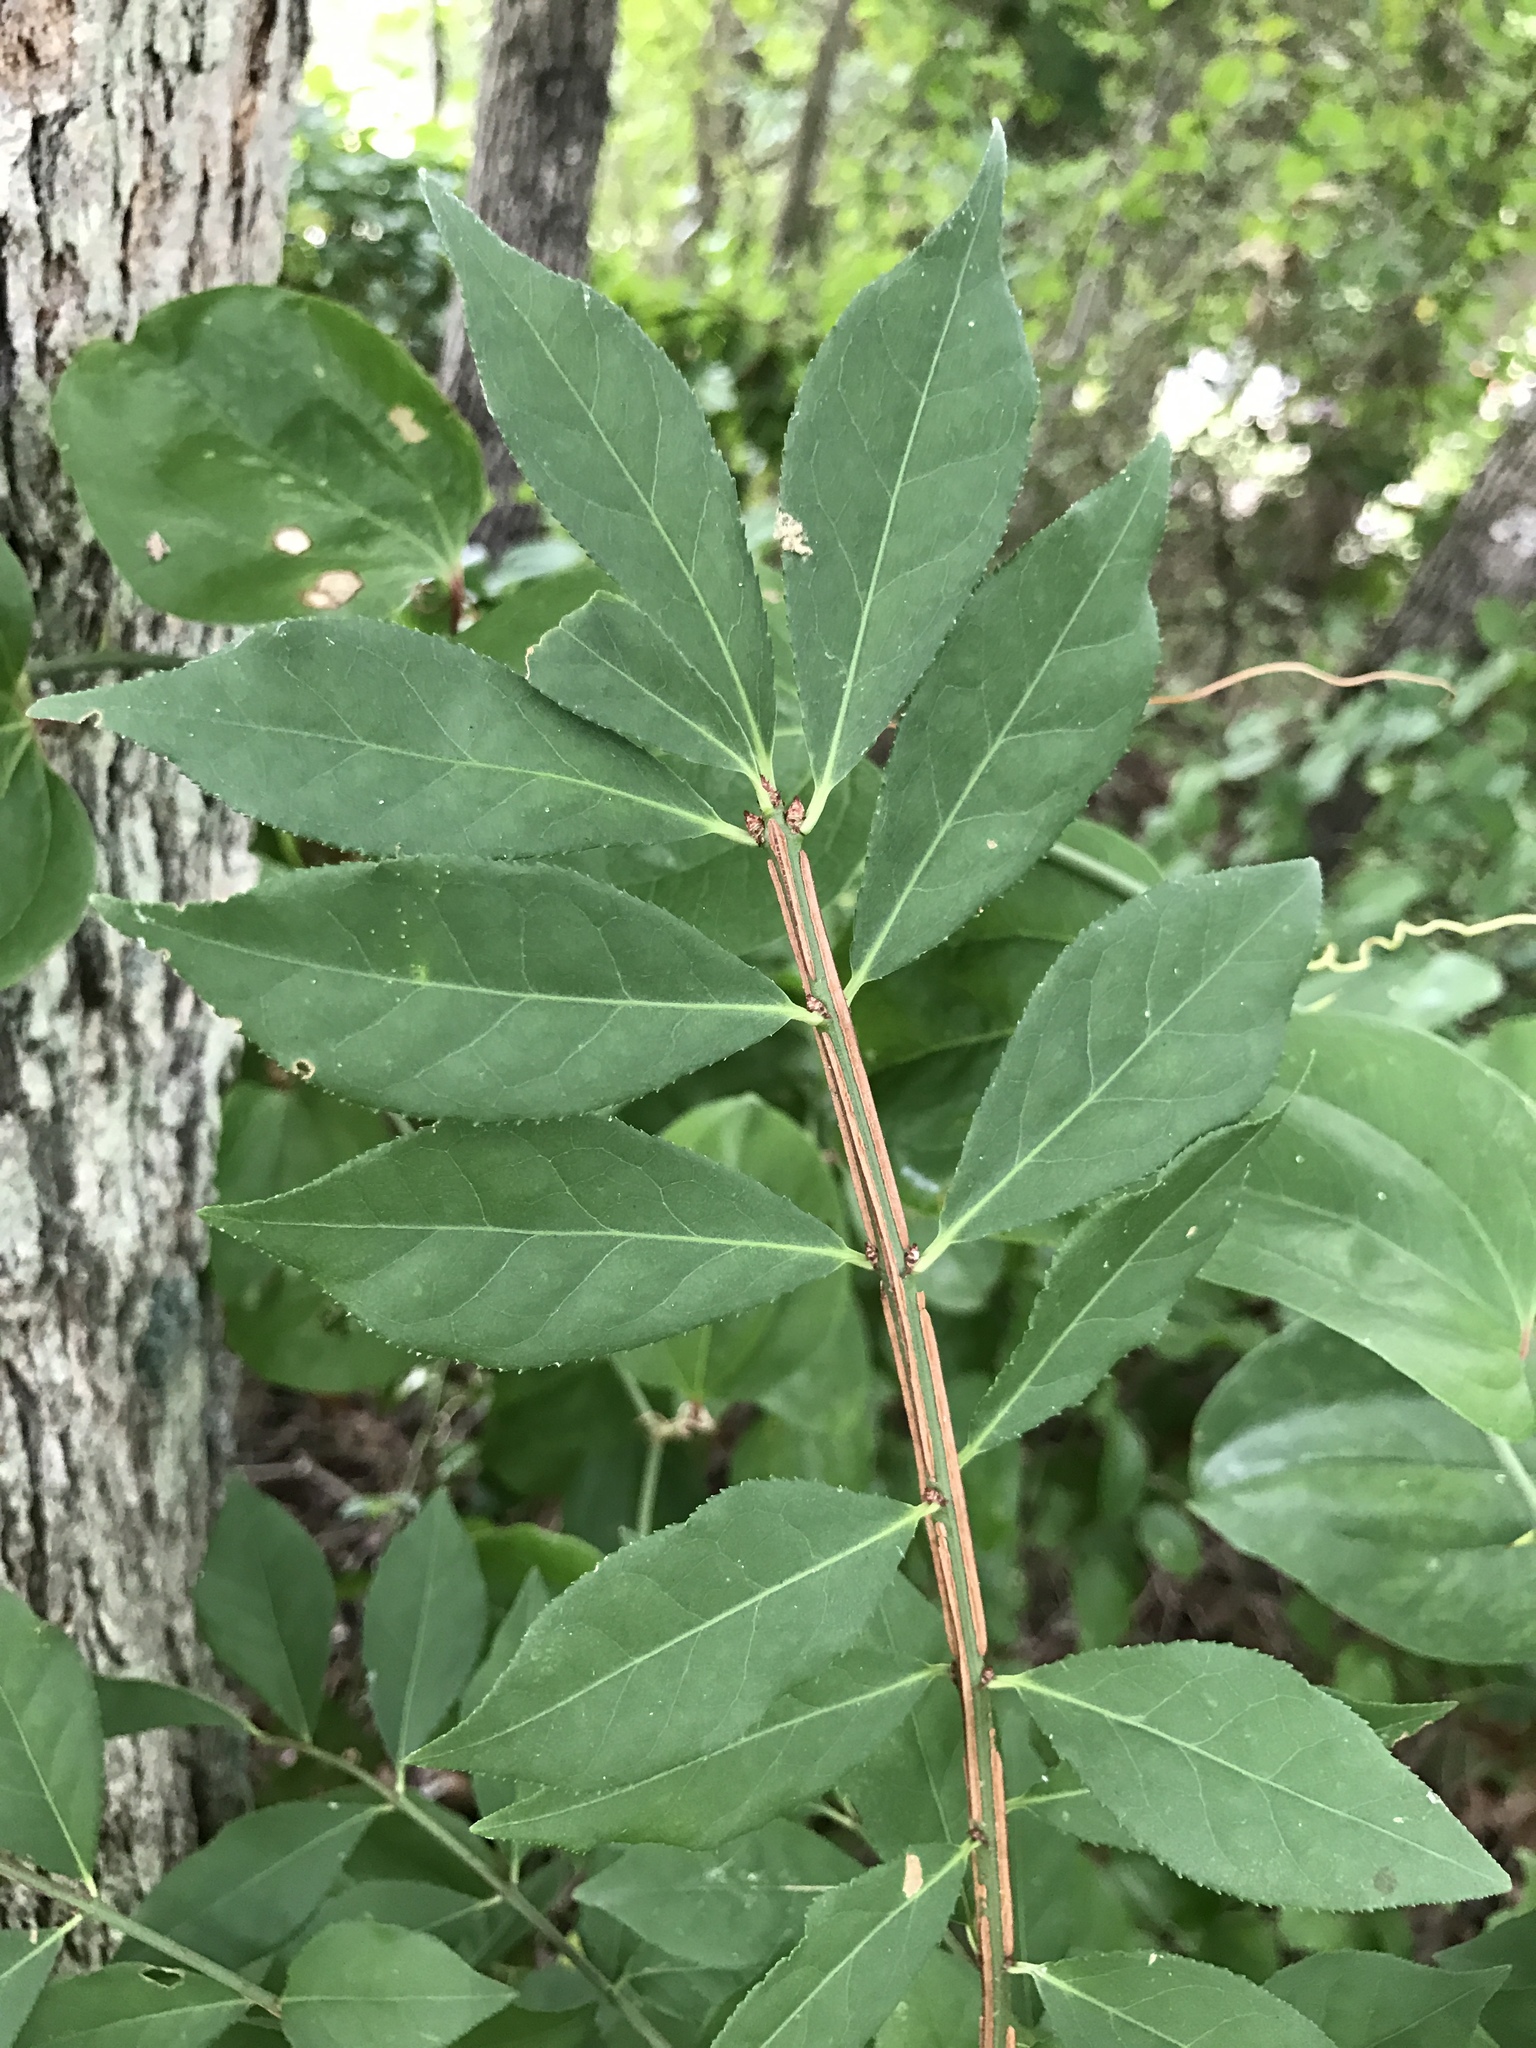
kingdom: Plantae
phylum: Tracheophyta
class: Magnoliopsida
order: Celastrales
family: Celastraceae
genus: Euonymus
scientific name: Euonymus alatus
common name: Winged euonymus
